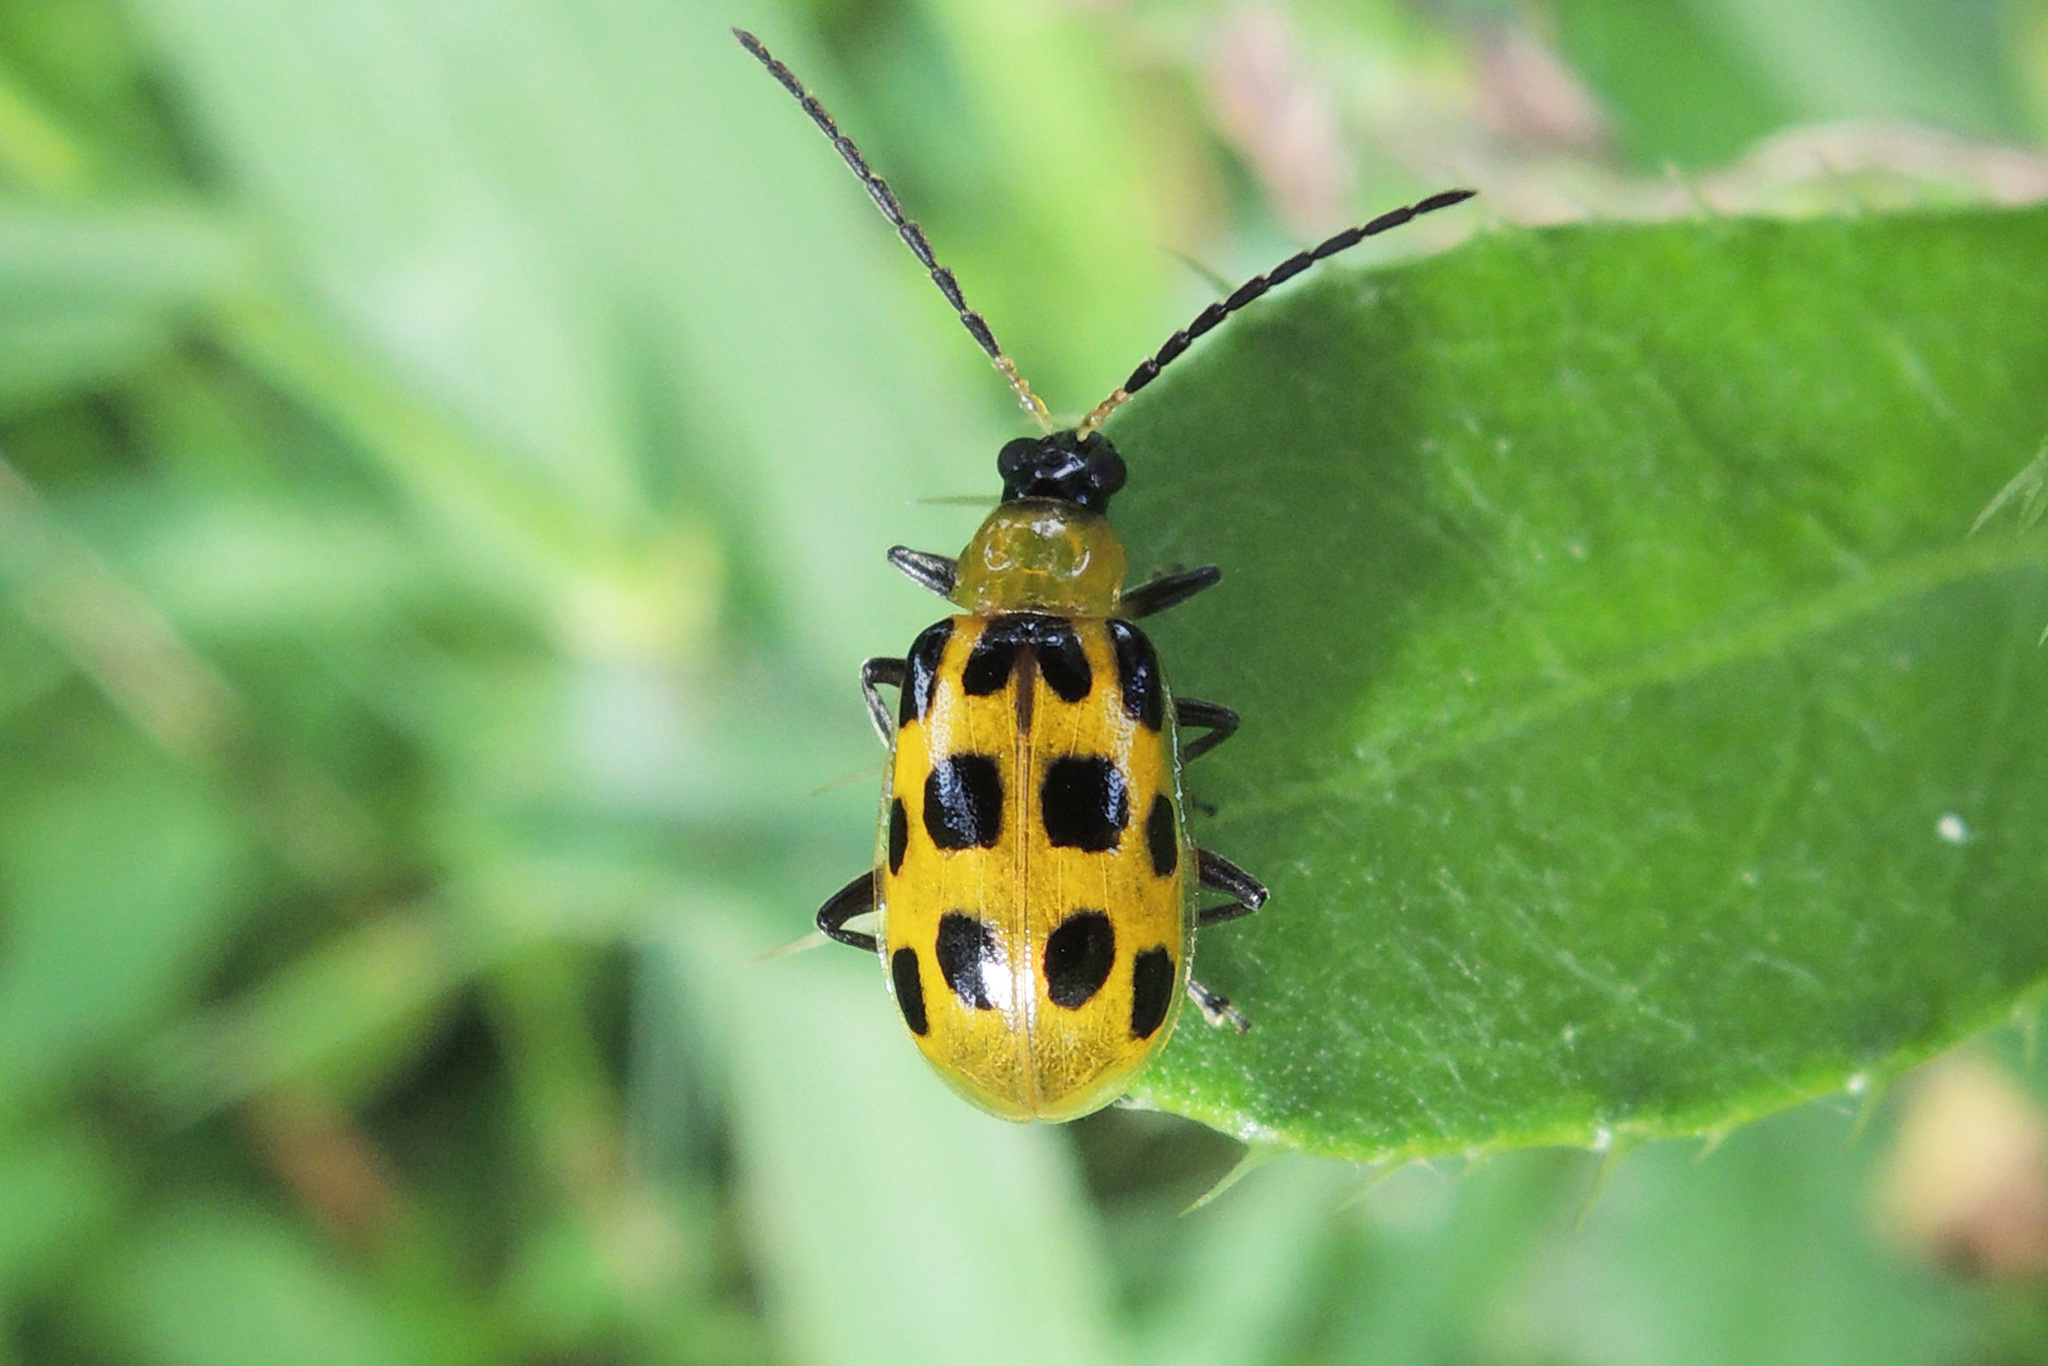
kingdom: Animalia
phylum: Arthropoda
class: Insecta
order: Coleoptera
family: Chrysomelidae
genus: Diabrotica
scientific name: Diabrotica undecimpunctata
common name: Spotted cucumber beetle
